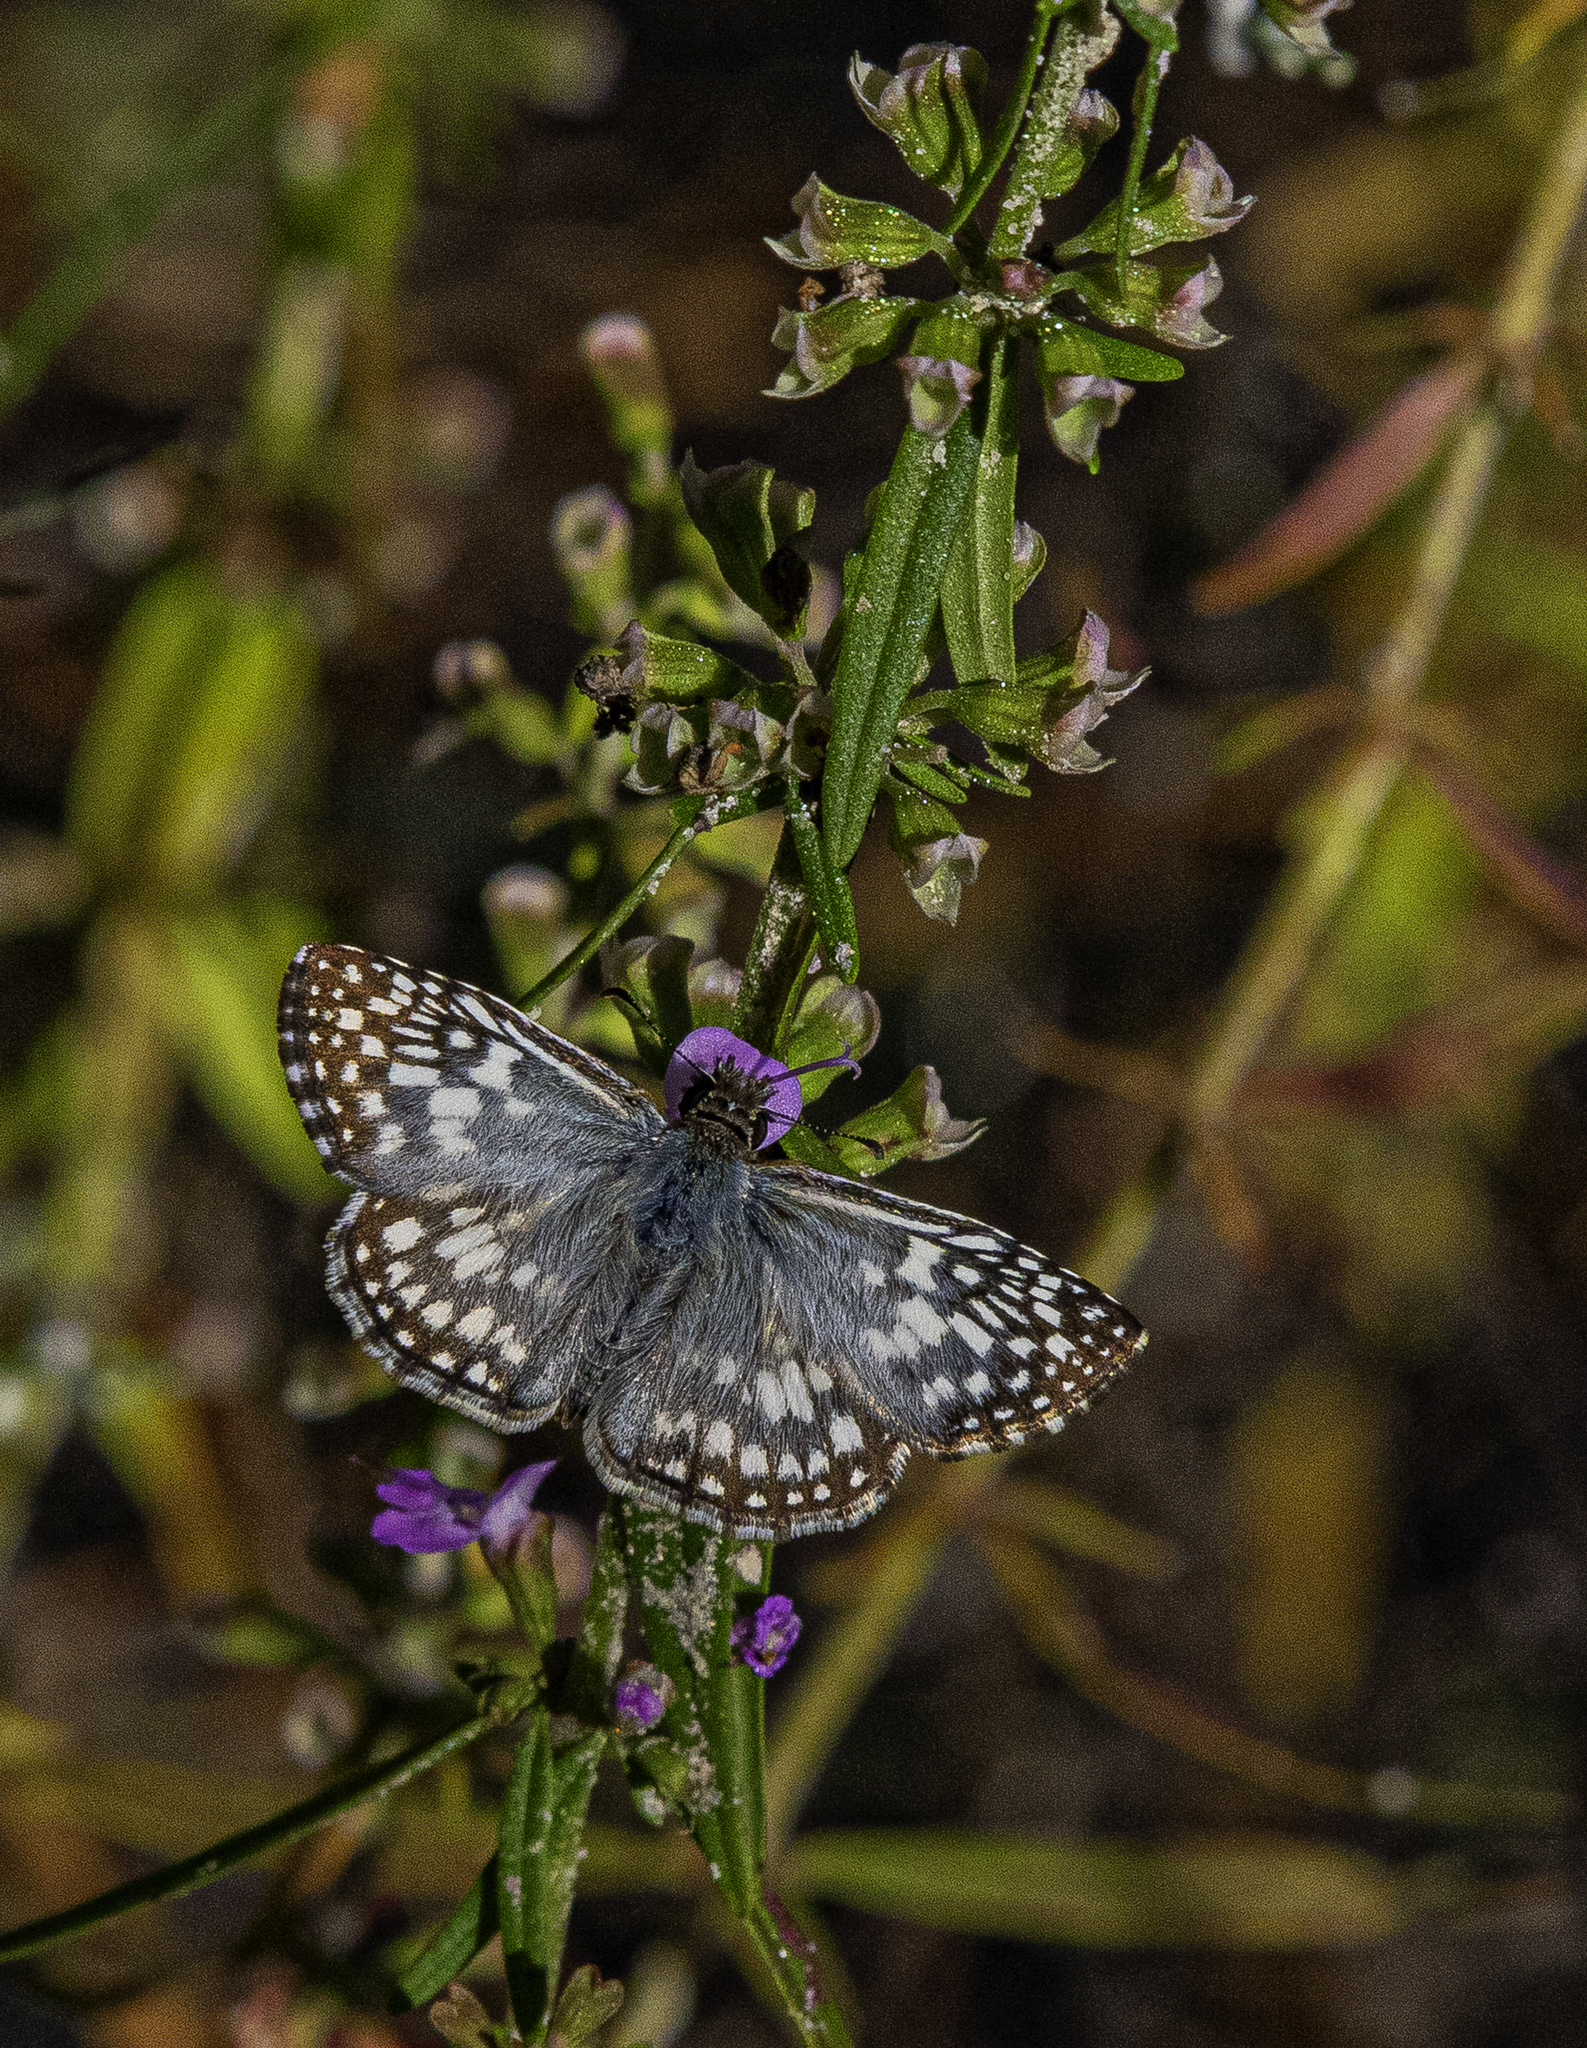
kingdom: Animalia
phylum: Arthropoda
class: Insecta
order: Lepidoptera
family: Hesperiidae
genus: Pyrgus
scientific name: Pyrgus oileus
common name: Tropical checkered-skipper
